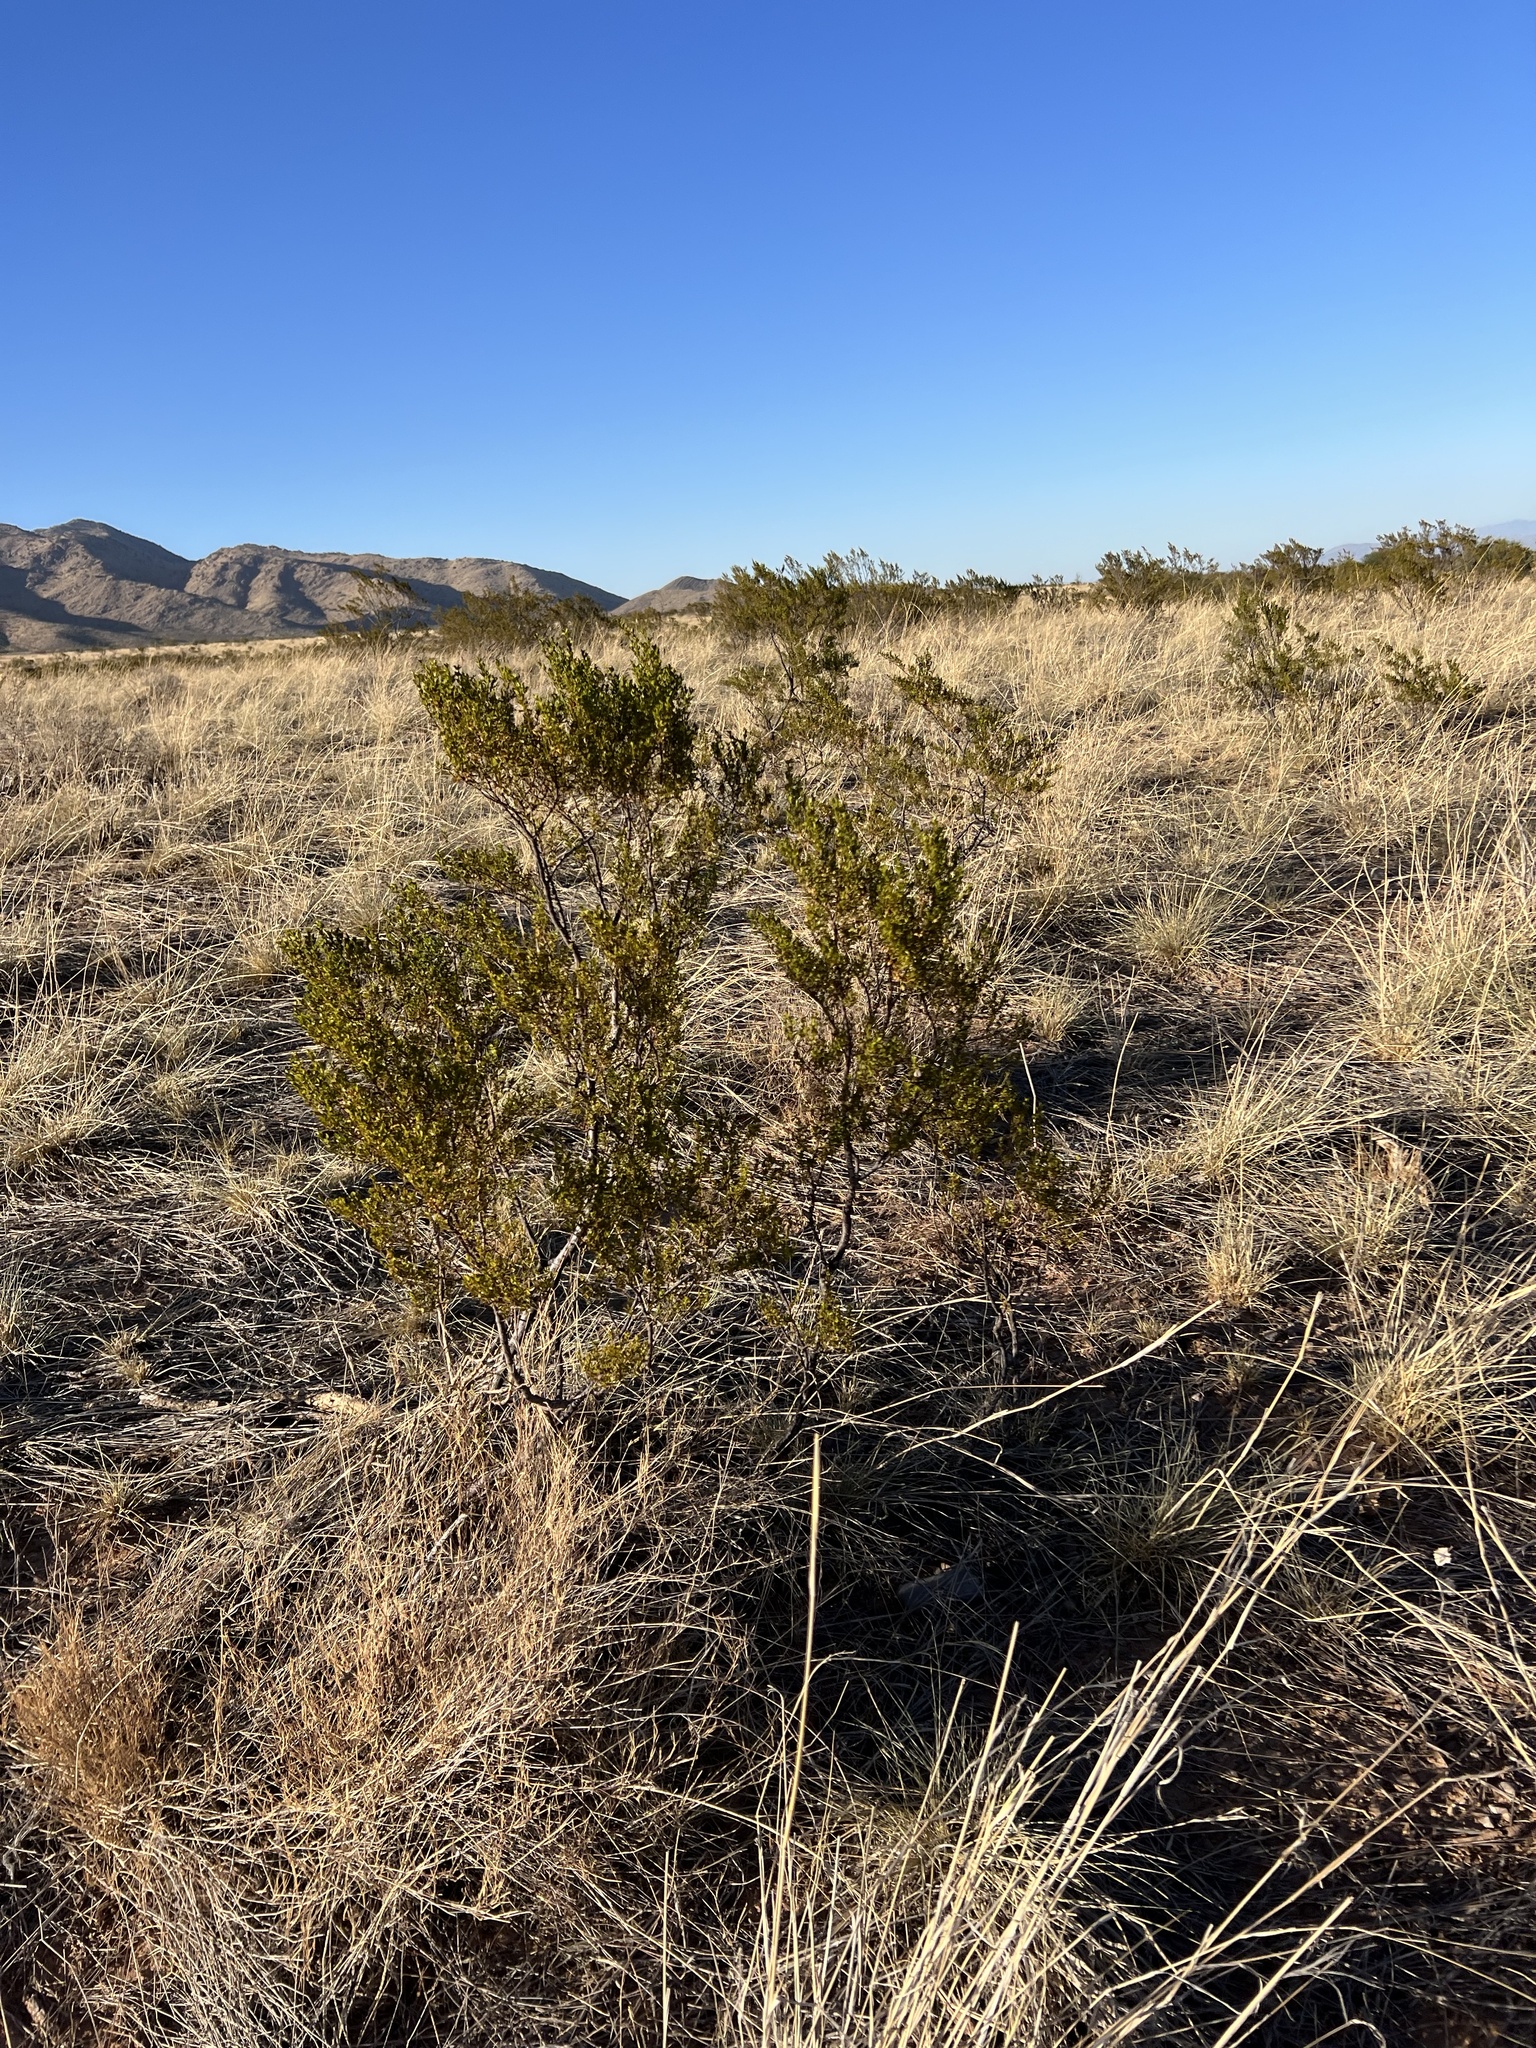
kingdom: Plantae
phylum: Tracheophyta
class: Magnoliopsida
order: Zygophyllales
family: Zygophyllaceae
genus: Larrea
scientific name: Larrea tridentata
